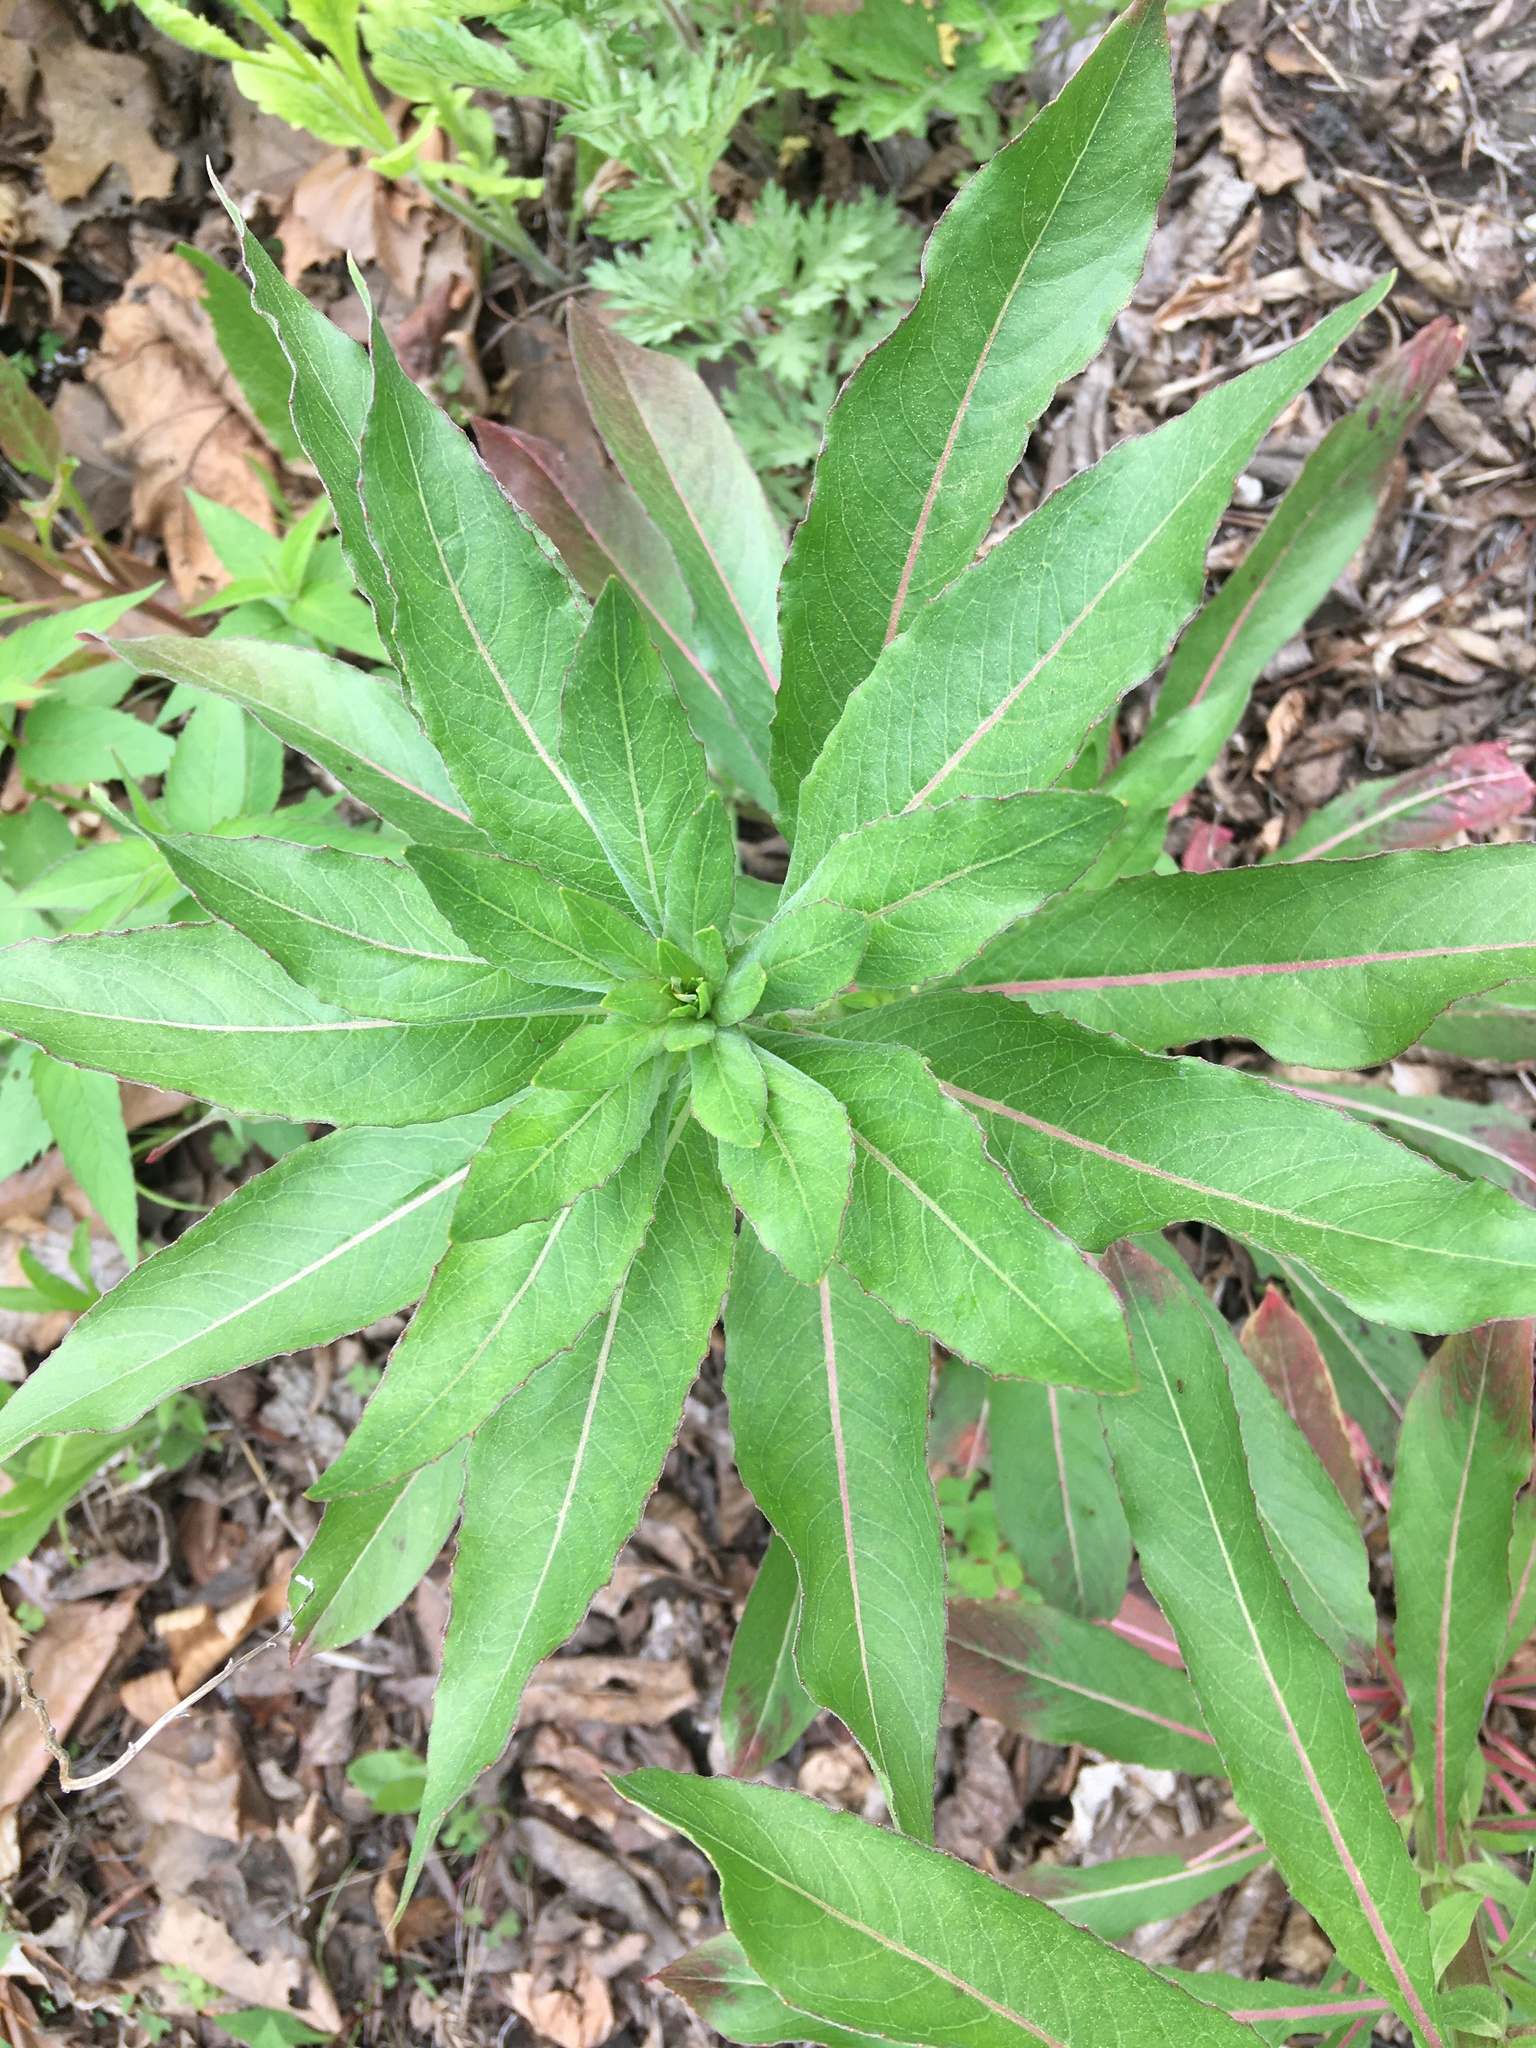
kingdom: Plantae
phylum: Tracheophyta
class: Magnoliopsida
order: Myrtales
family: Onagraceae
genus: Oenothera
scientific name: Oenothera biennis
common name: Common evening-primrose
